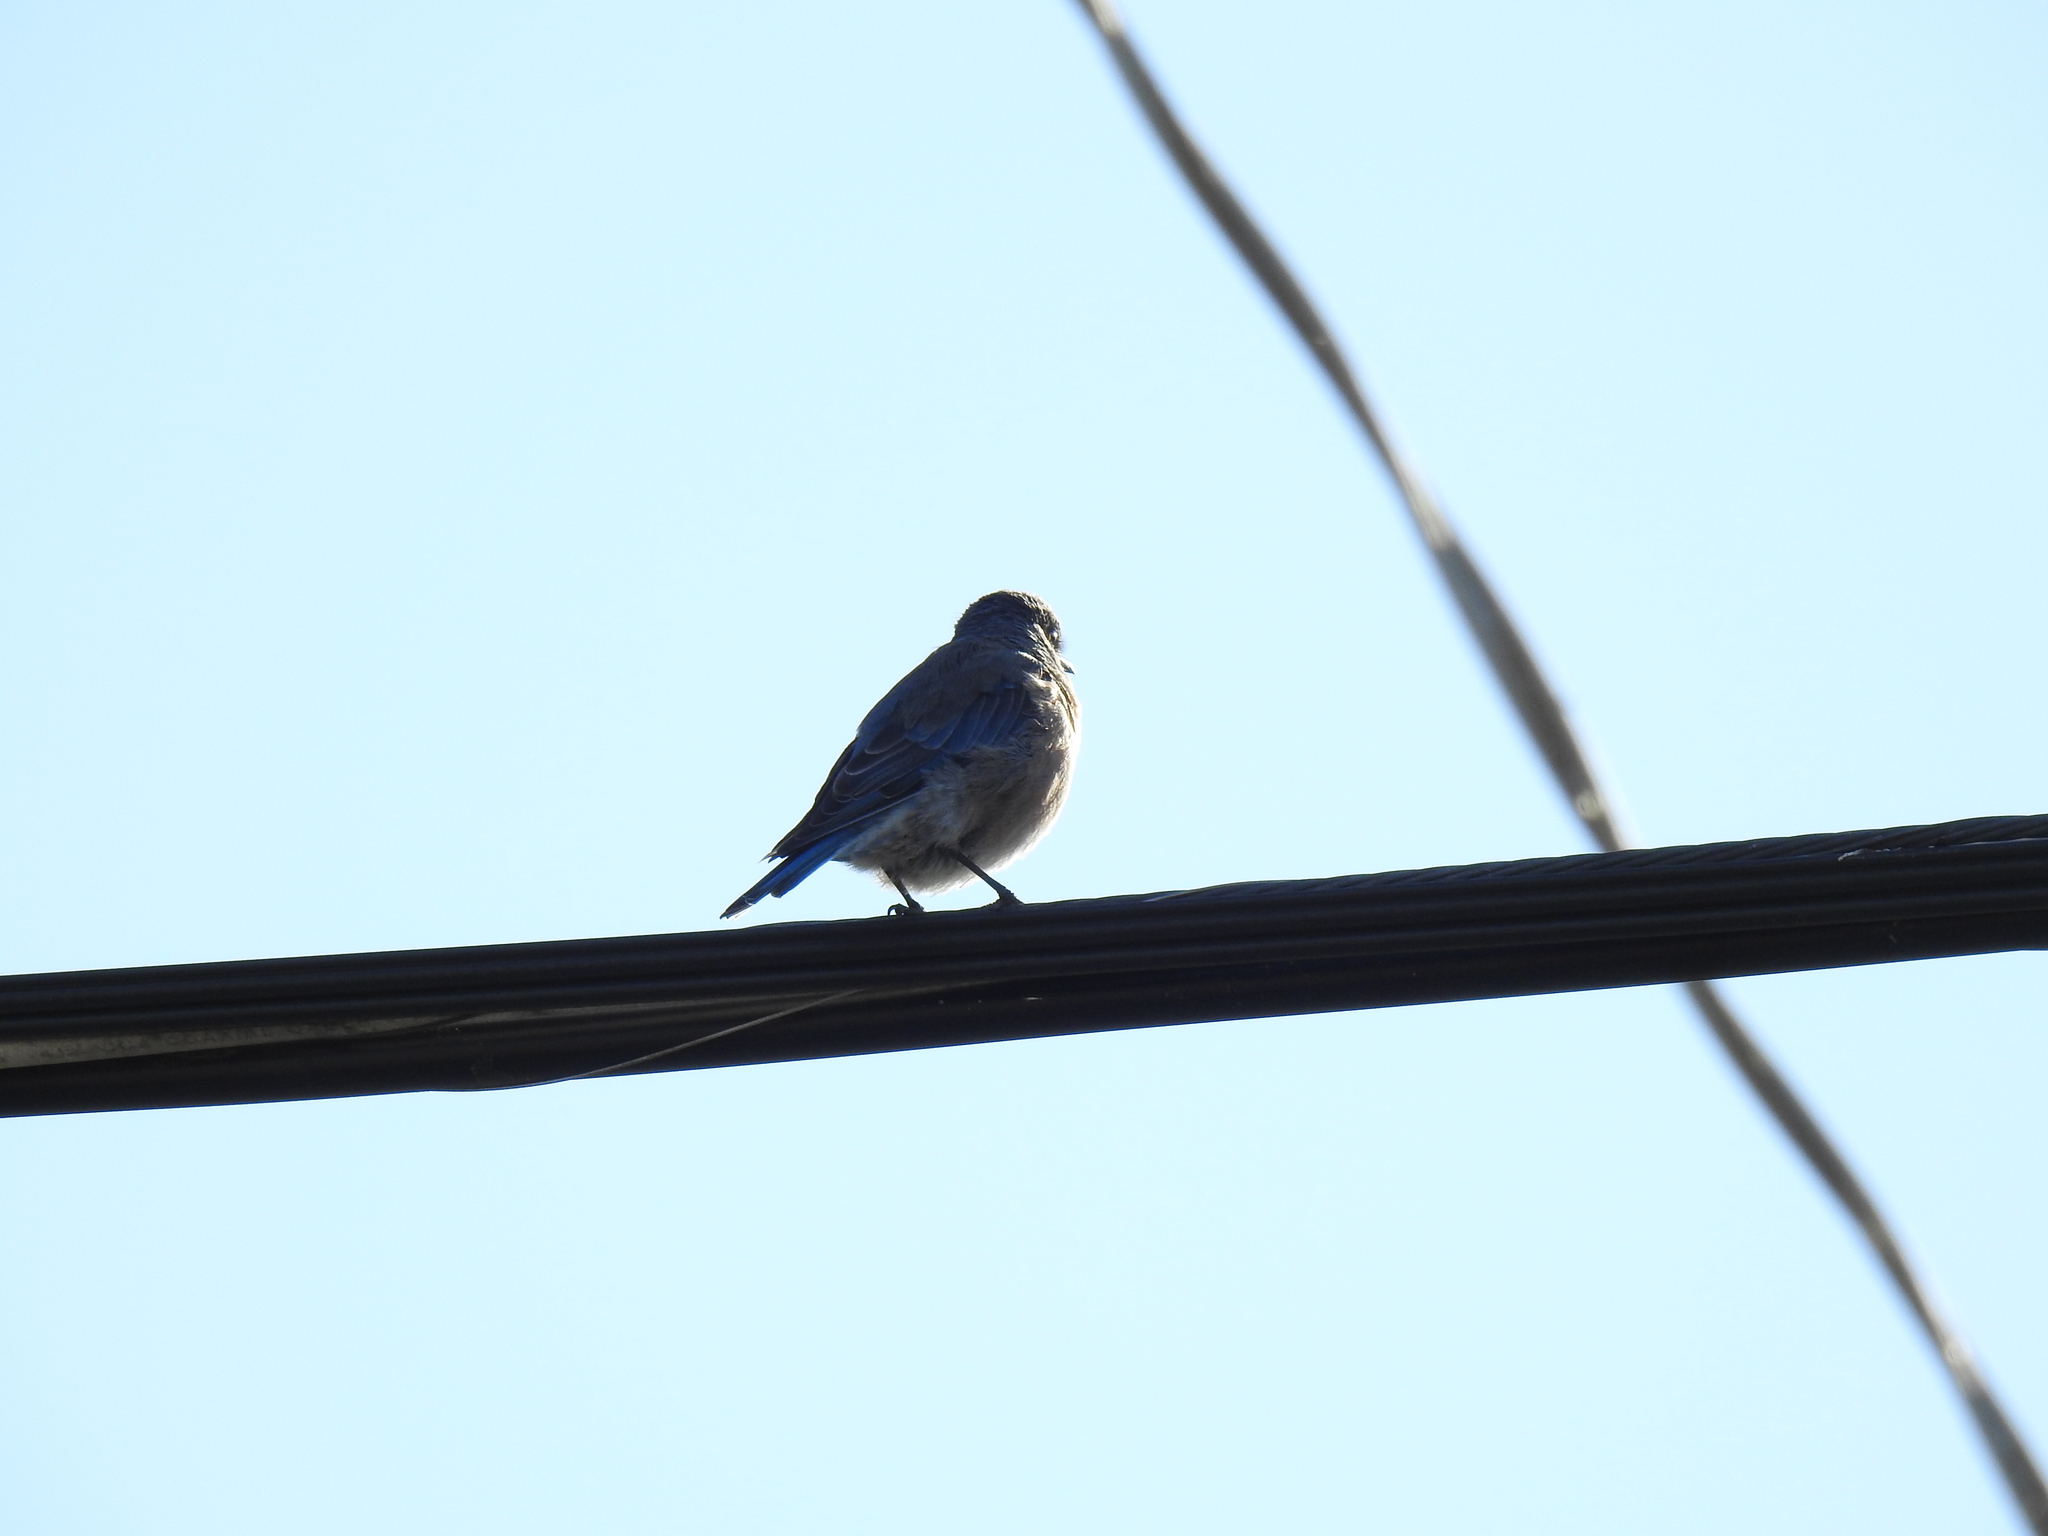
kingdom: Animalia
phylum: Chordata
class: Aves
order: Passeriformes
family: Turdidae
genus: Sialia
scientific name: Sialia mexicana
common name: Western bluebird
